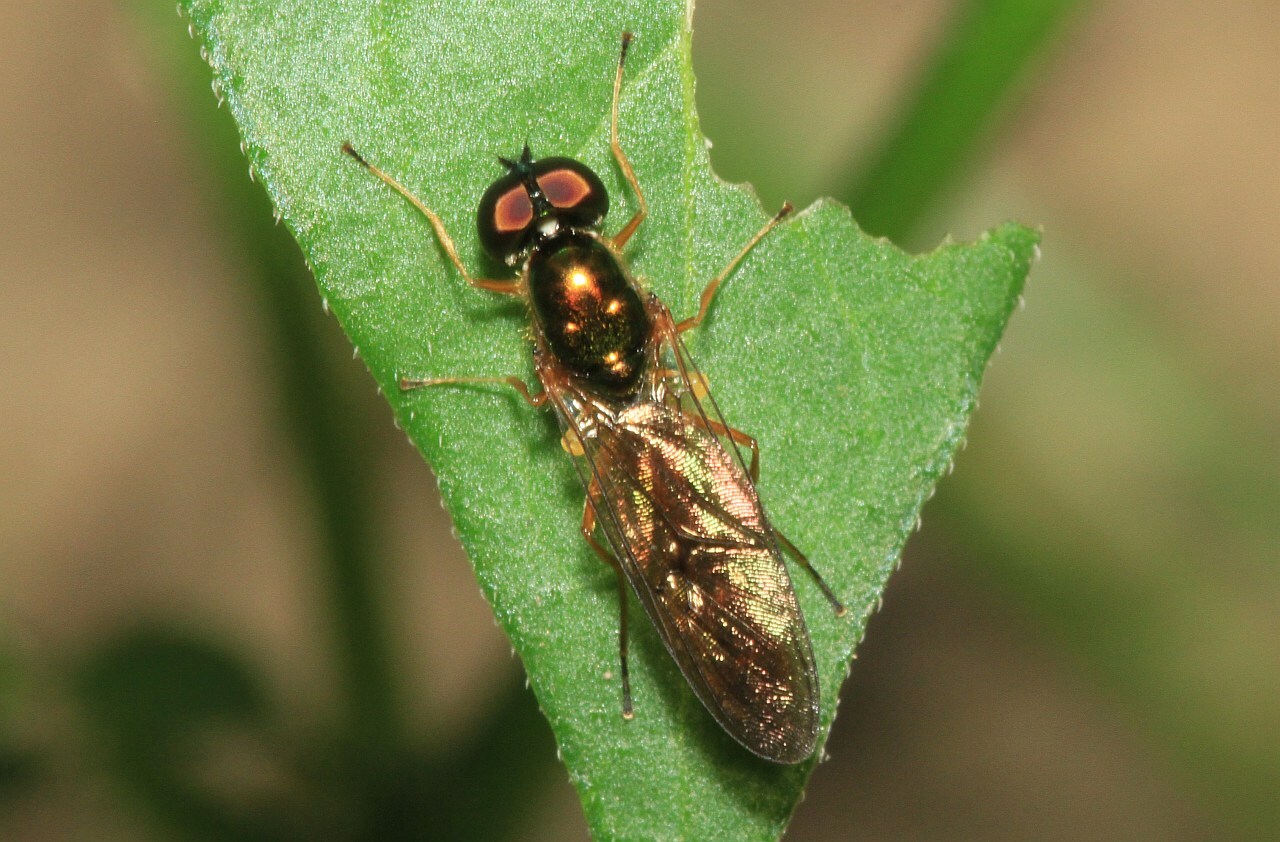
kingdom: Animalia
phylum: Arthropoda
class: Insecta
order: Diptera
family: Stratiomyidae
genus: Sargus
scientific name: Sargus bipunctatus
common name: Twin-spot centurion
